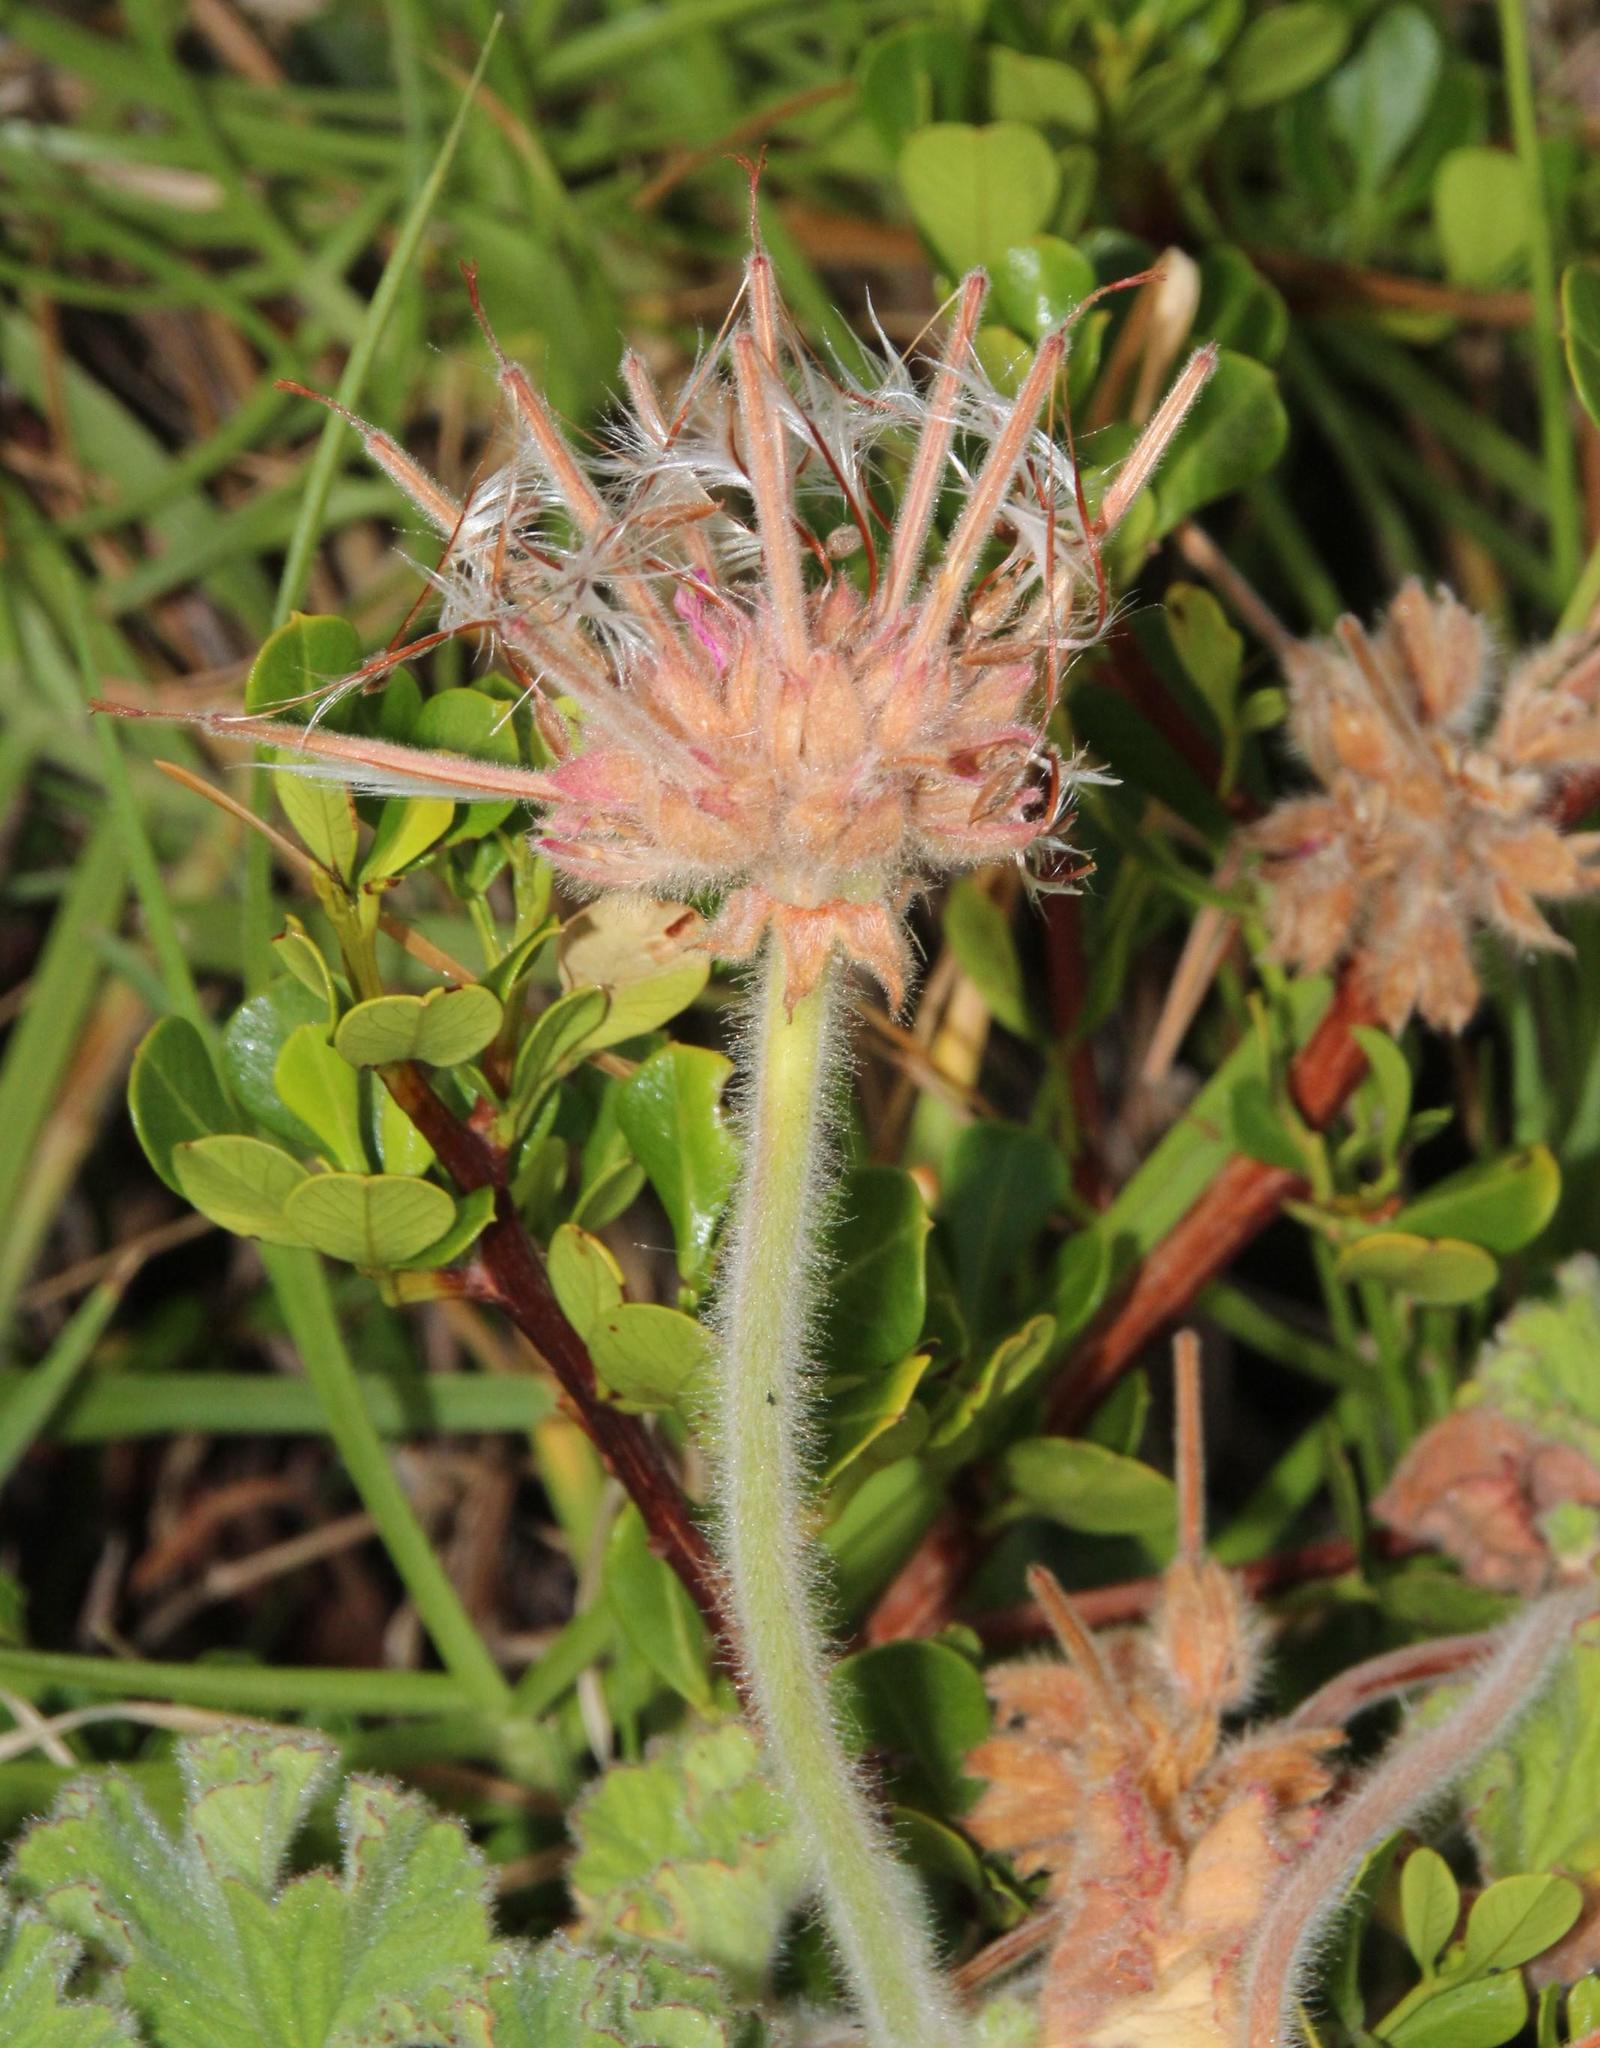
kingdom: Plantae
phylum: Tracheophyta
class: Magnoliopsida
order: Geraniales
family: Geraniaceae
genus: Pelargonium
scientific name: Pelargonium capitatum
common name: Rose scented geranium
